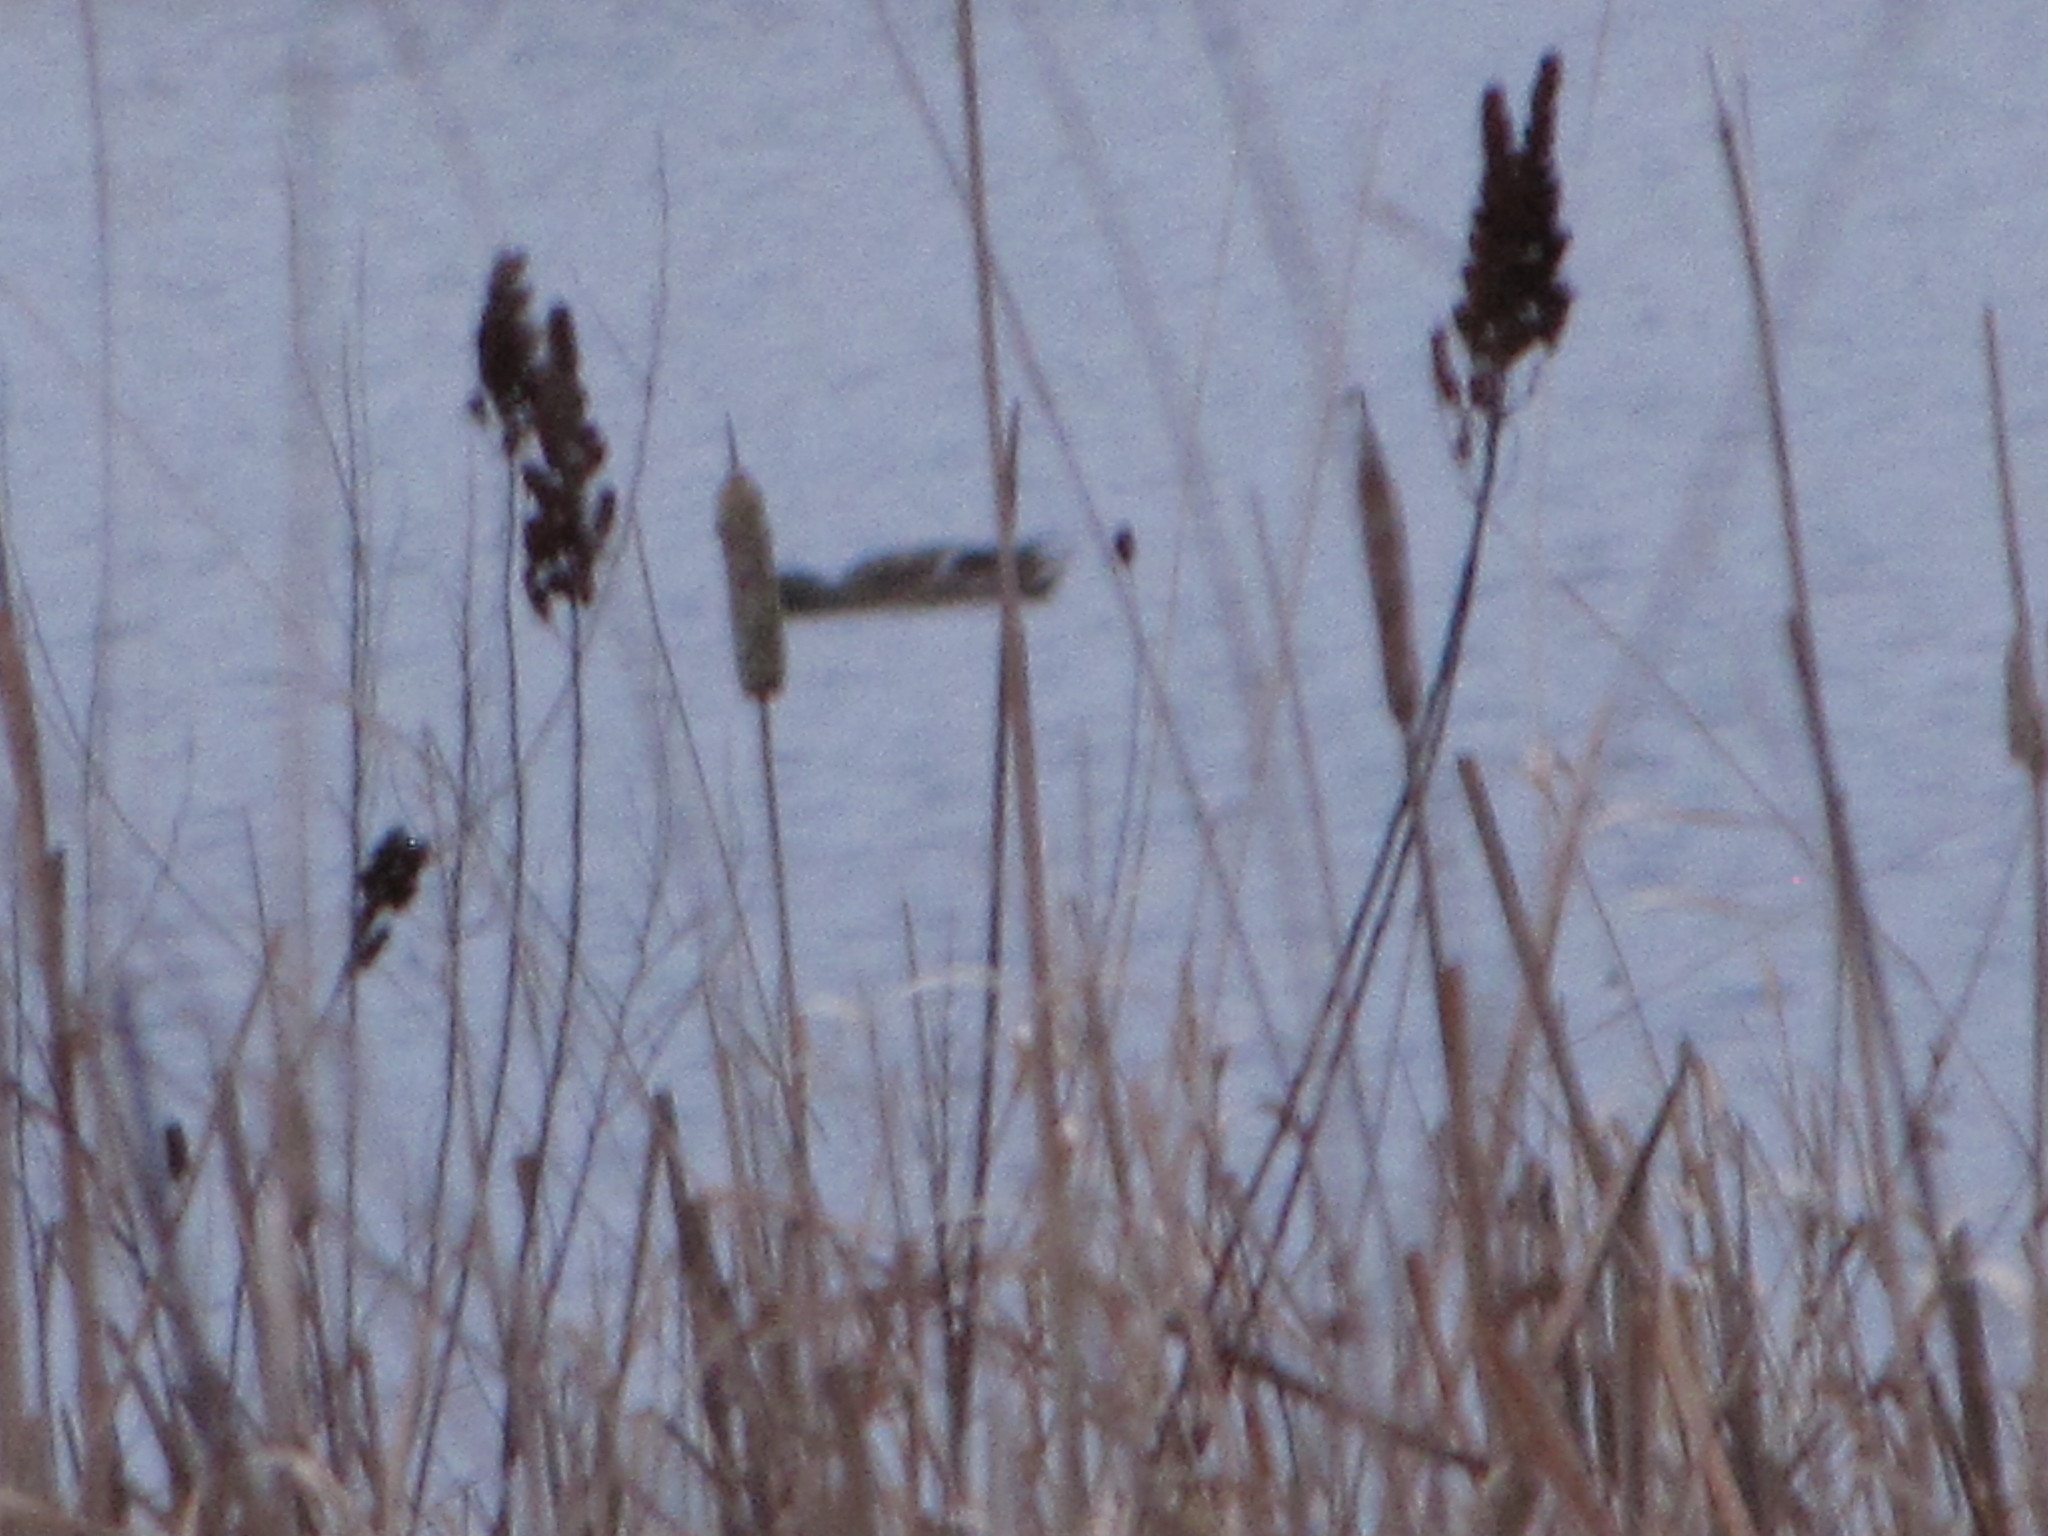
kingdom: Animalia
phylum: Chordata
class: Aves
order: Anseriformes
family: Anatidae
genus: Anas
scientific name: Anas platyrhynchos
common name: Mallard
